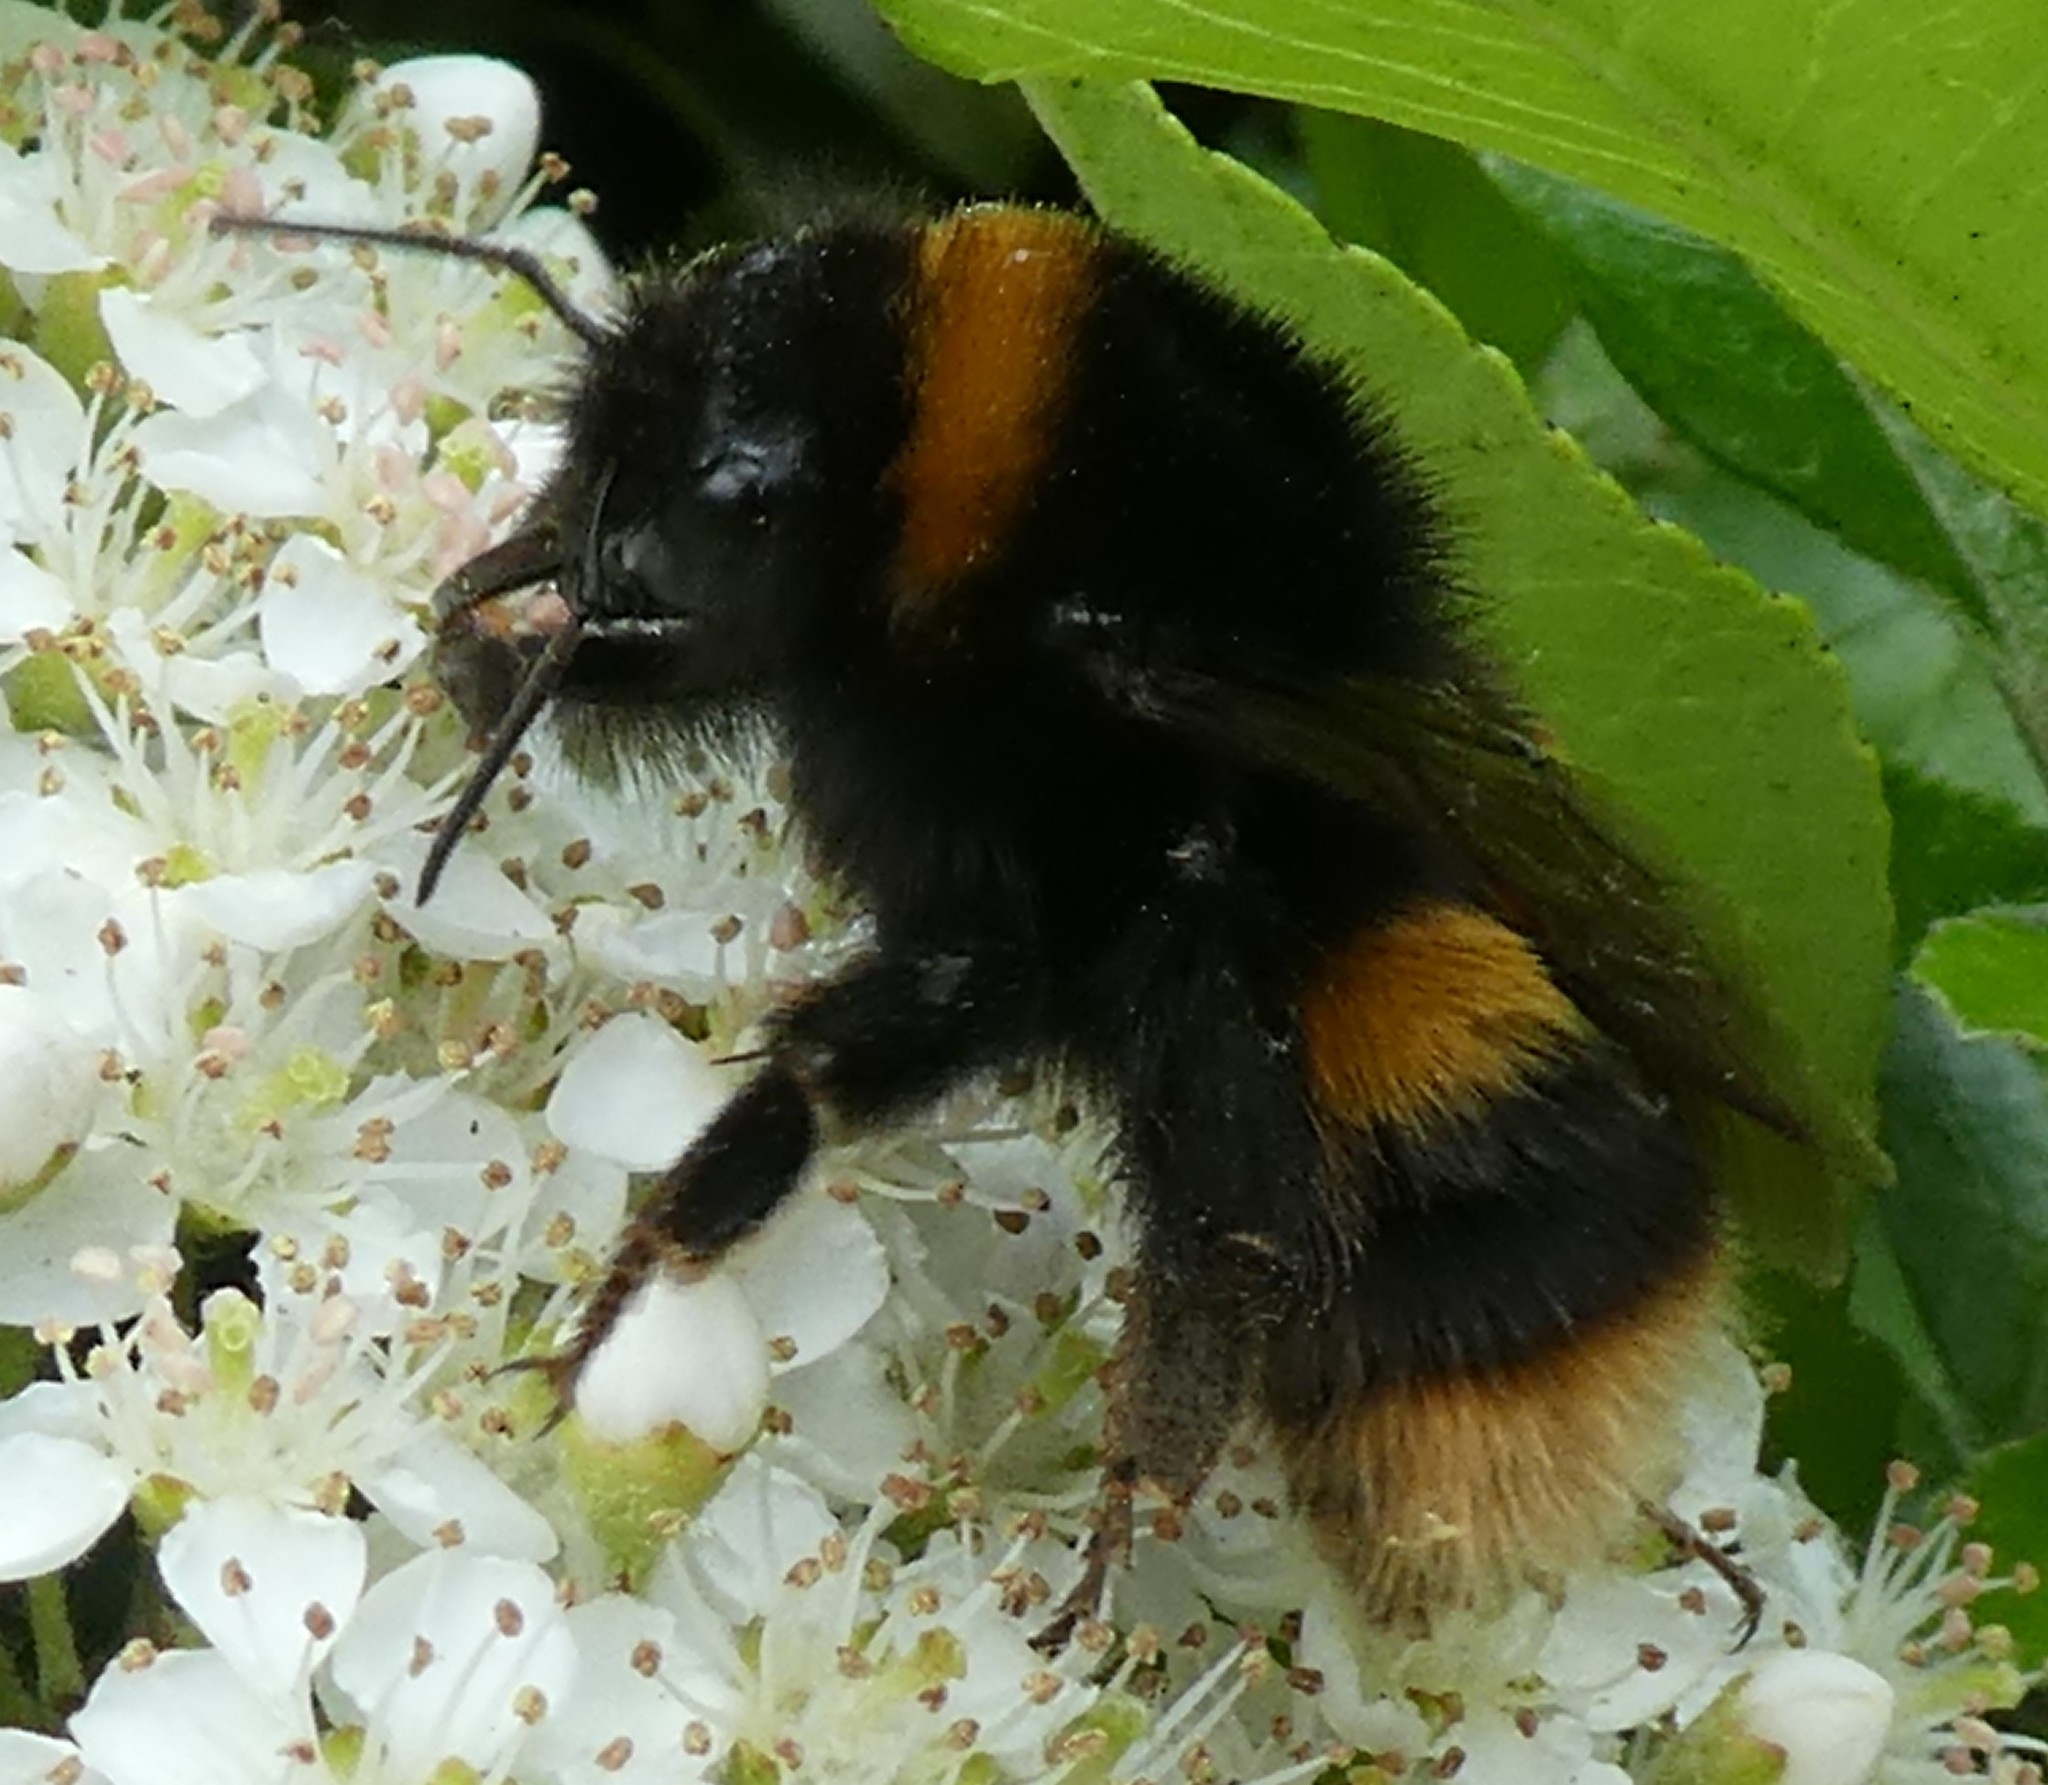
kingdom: Animalia
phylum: Arthropoda
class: Insecta
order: Hymenoptera
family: Apidae
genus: Bombus
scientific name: Bombus terrestris
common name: Buff-tailed bumblebee
